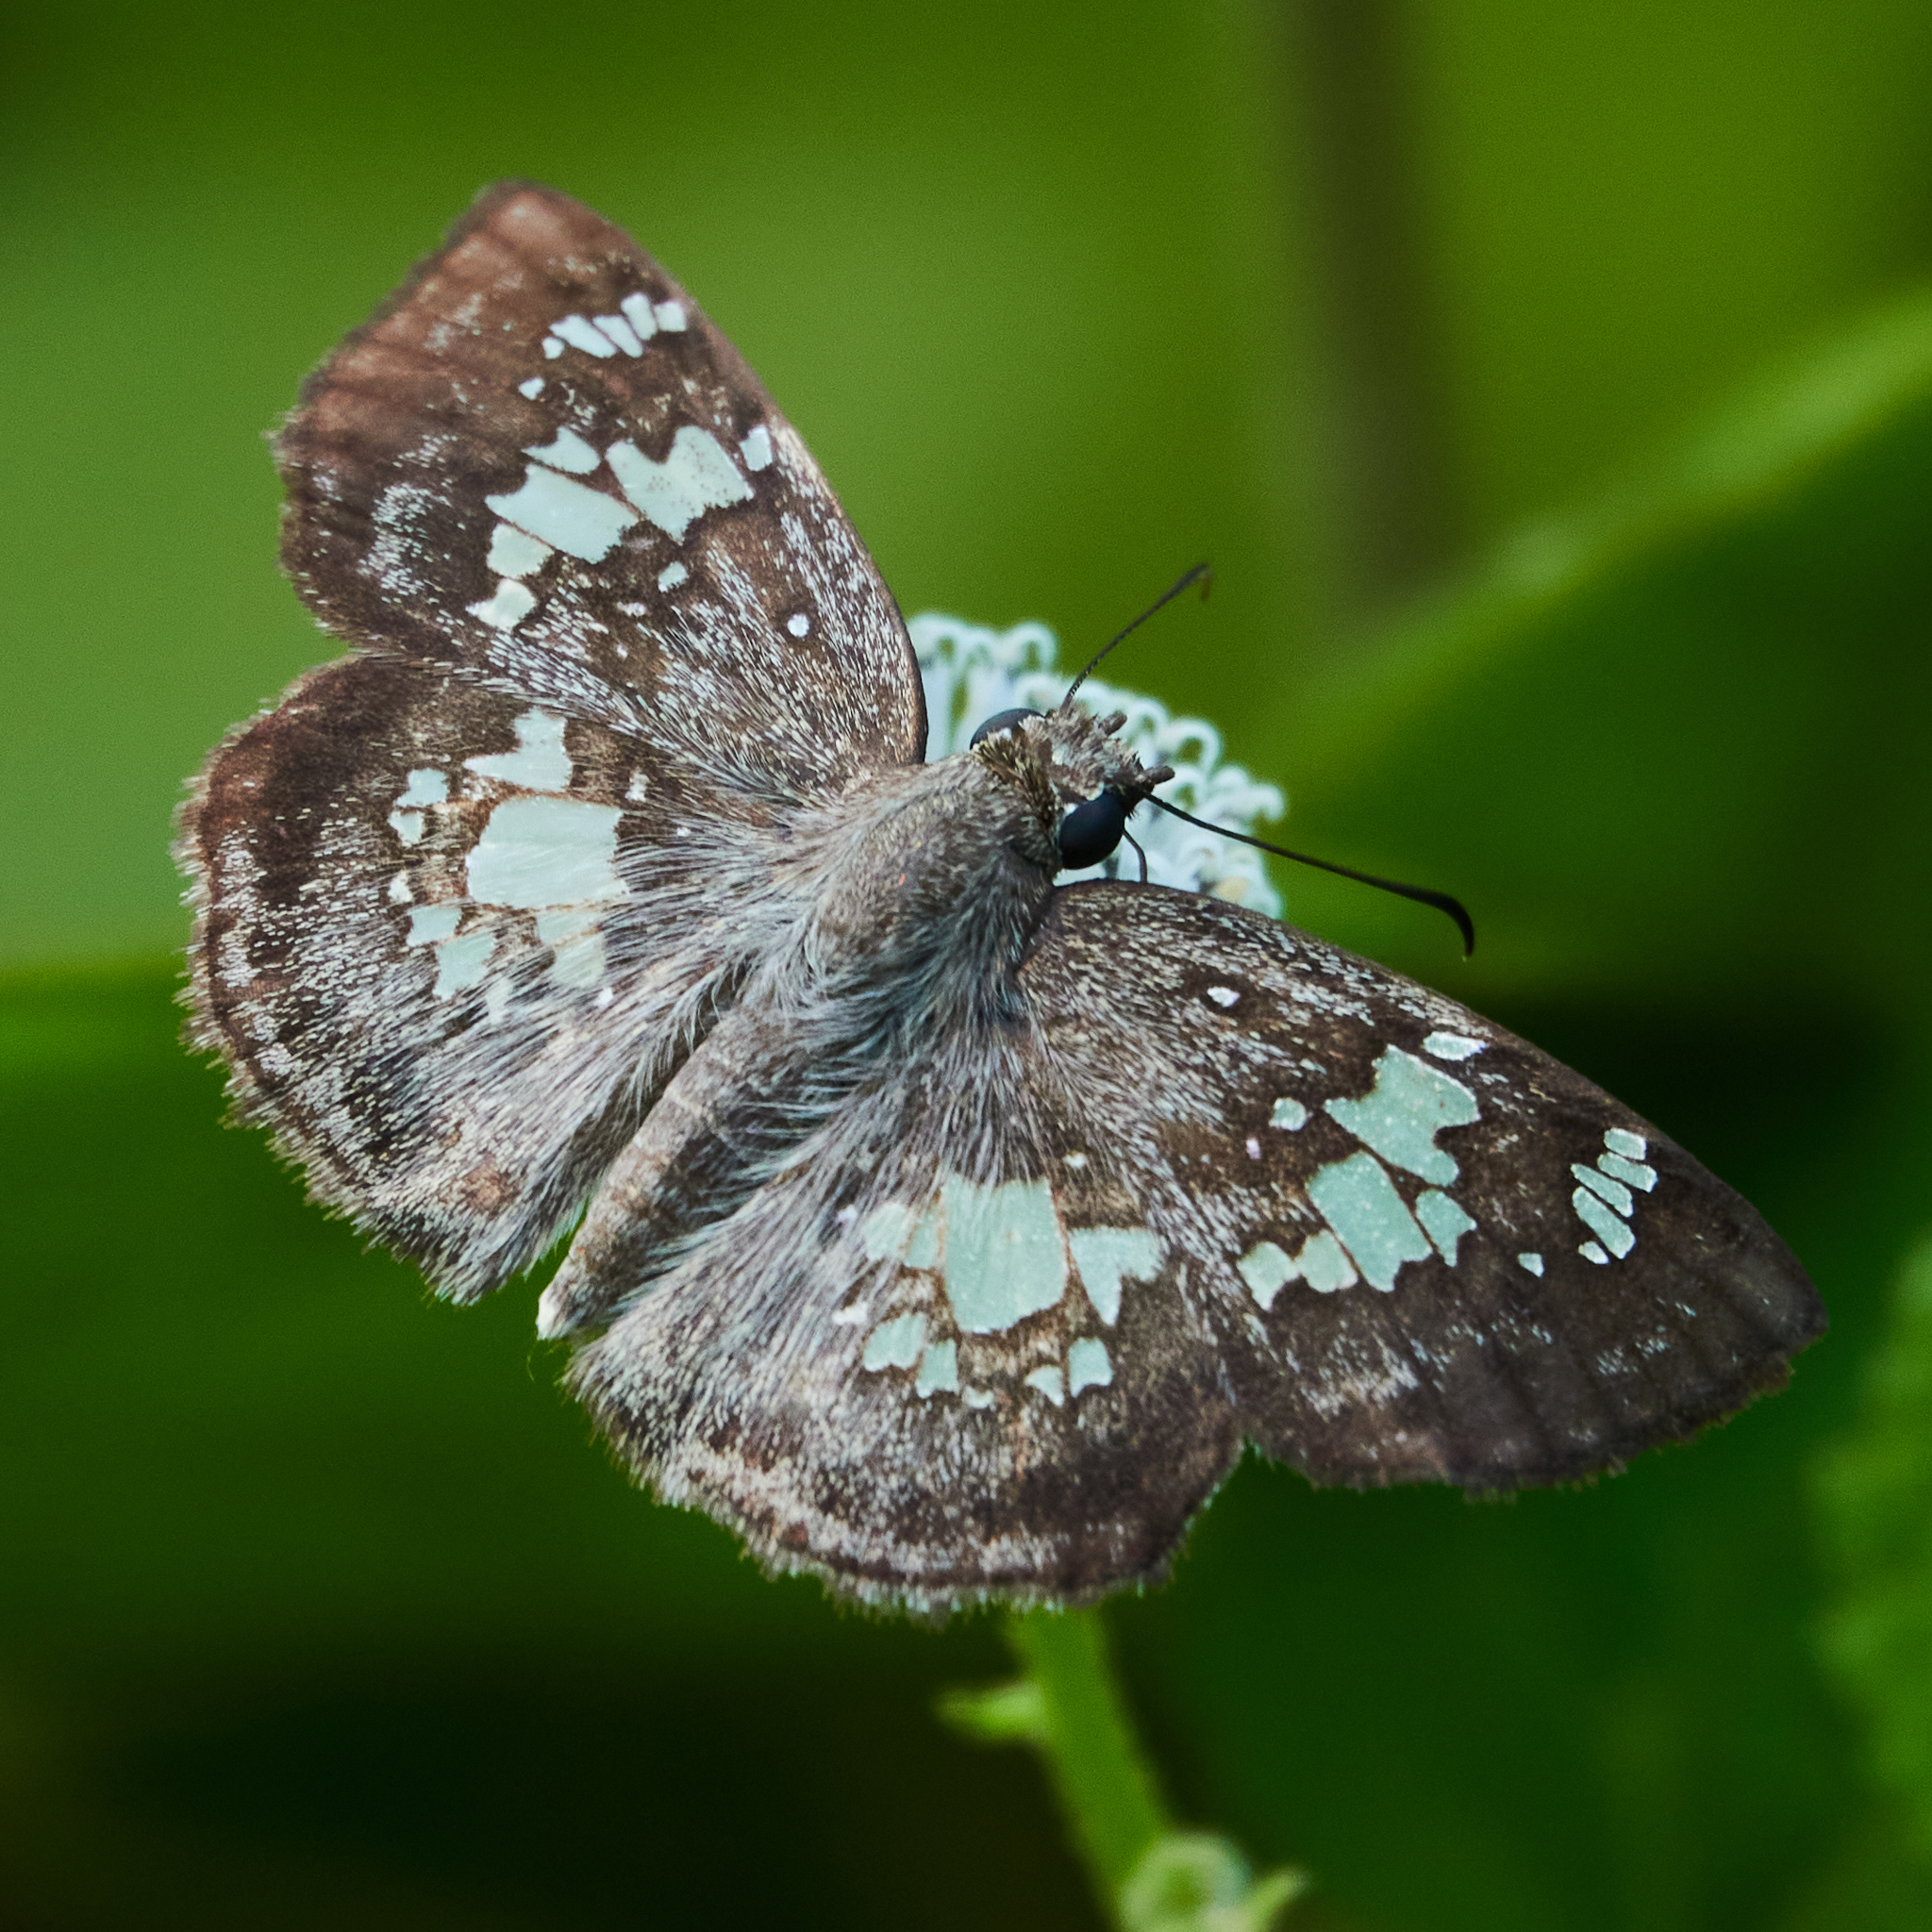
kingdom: Animalia
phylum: Arthropoda
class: Insecta
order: Lepidoptera
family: Hesperiidae
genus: Xenophanes
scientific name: Xenophanes tryxus
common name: Glassy-winged skipper
